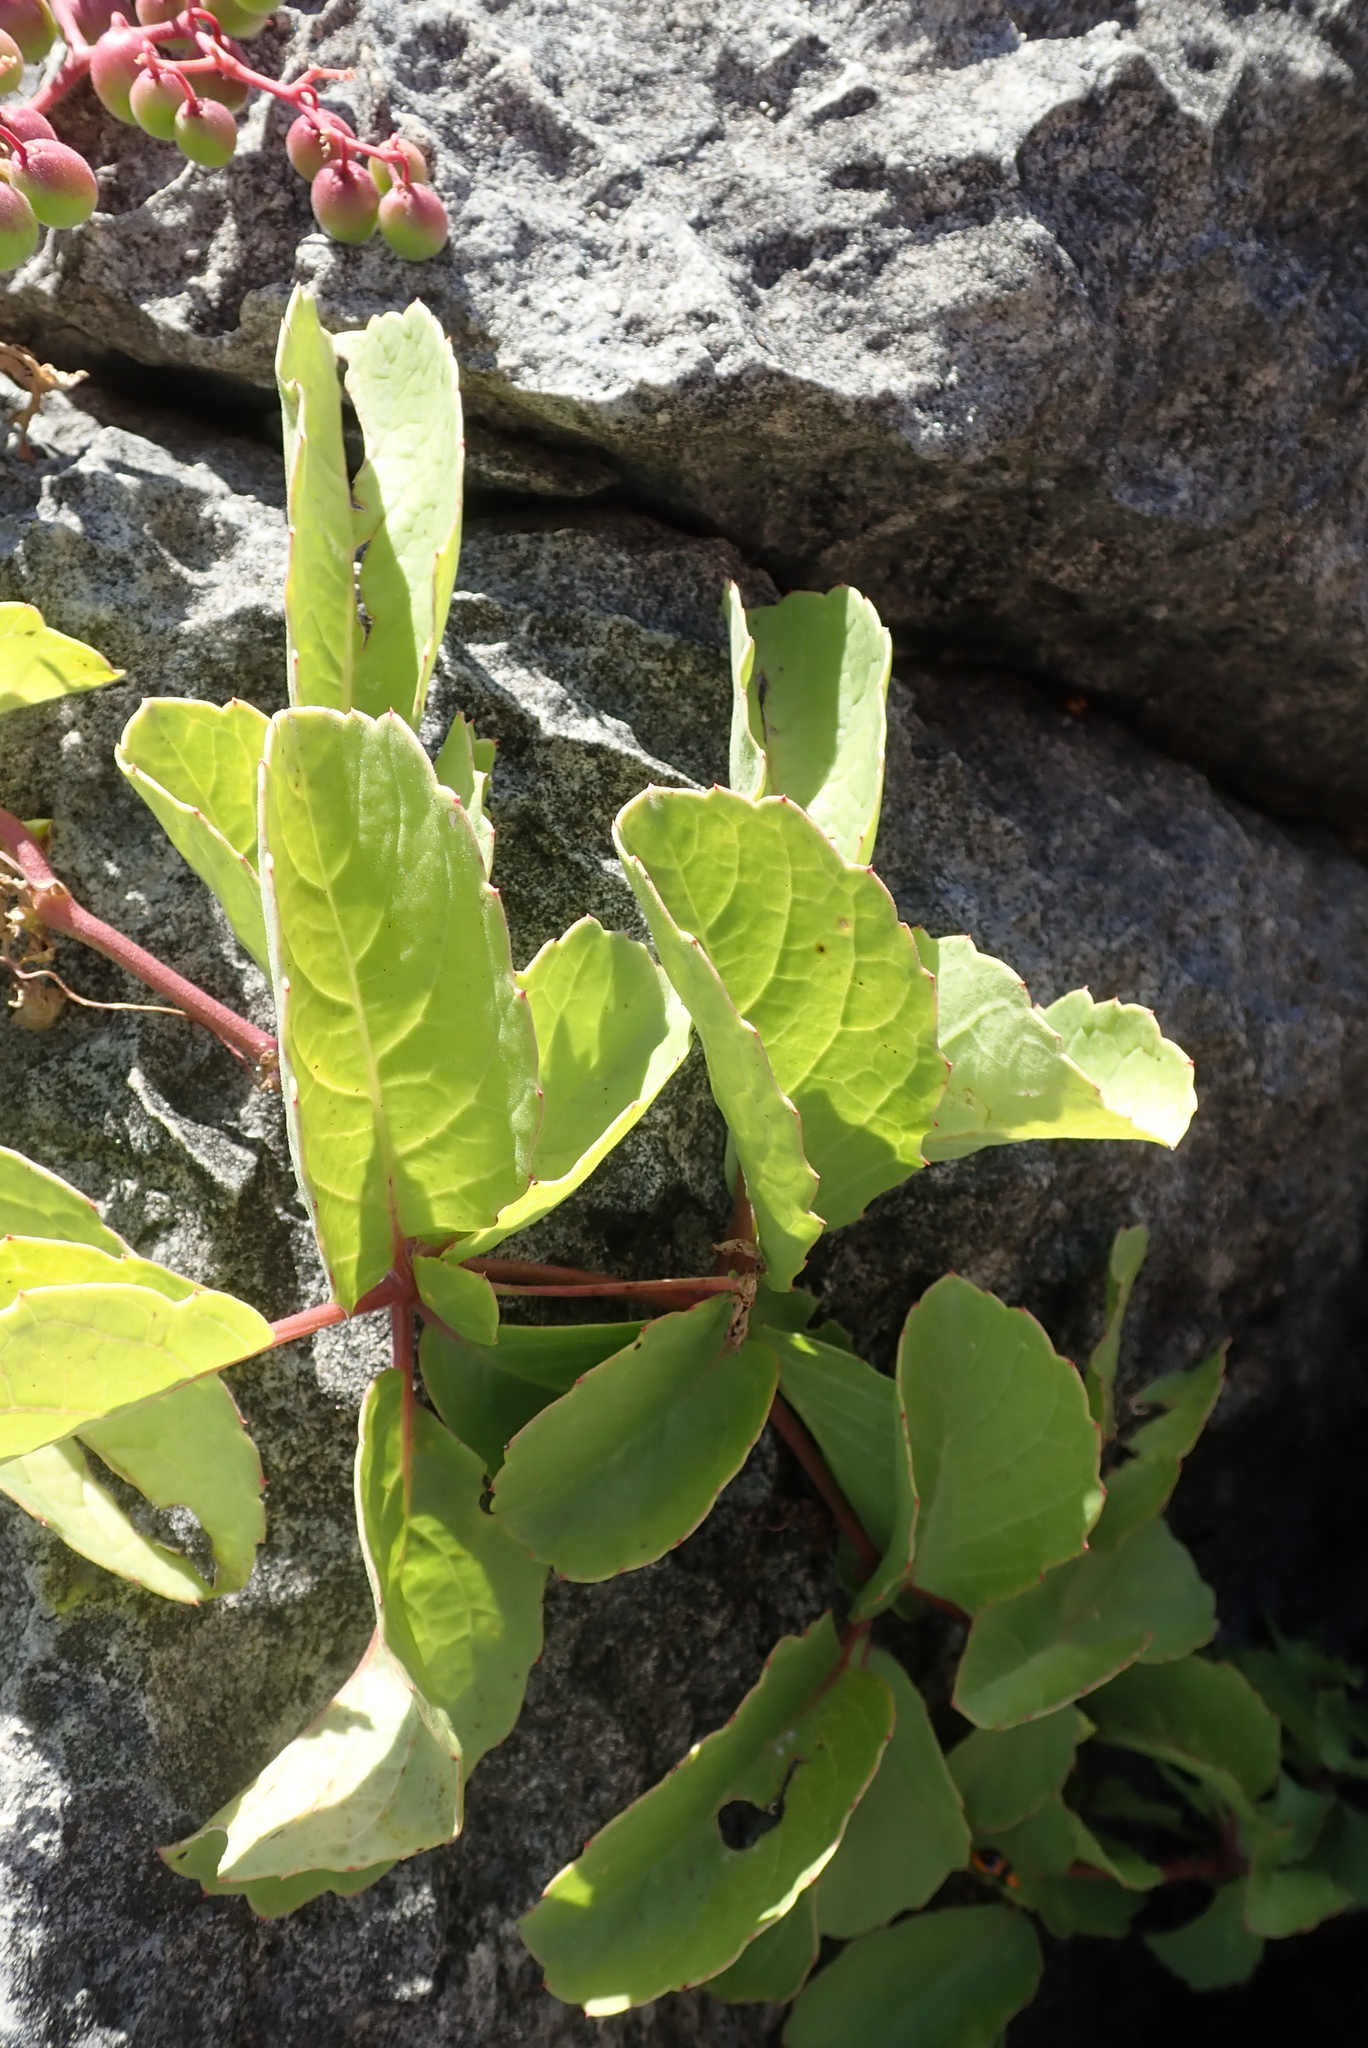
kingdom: Plantae
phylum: Tracheophyta
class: Magnoliopsida
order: Vitales
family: Vitaceae
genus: Cyphostemma
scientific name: Cyphostemma congestum
